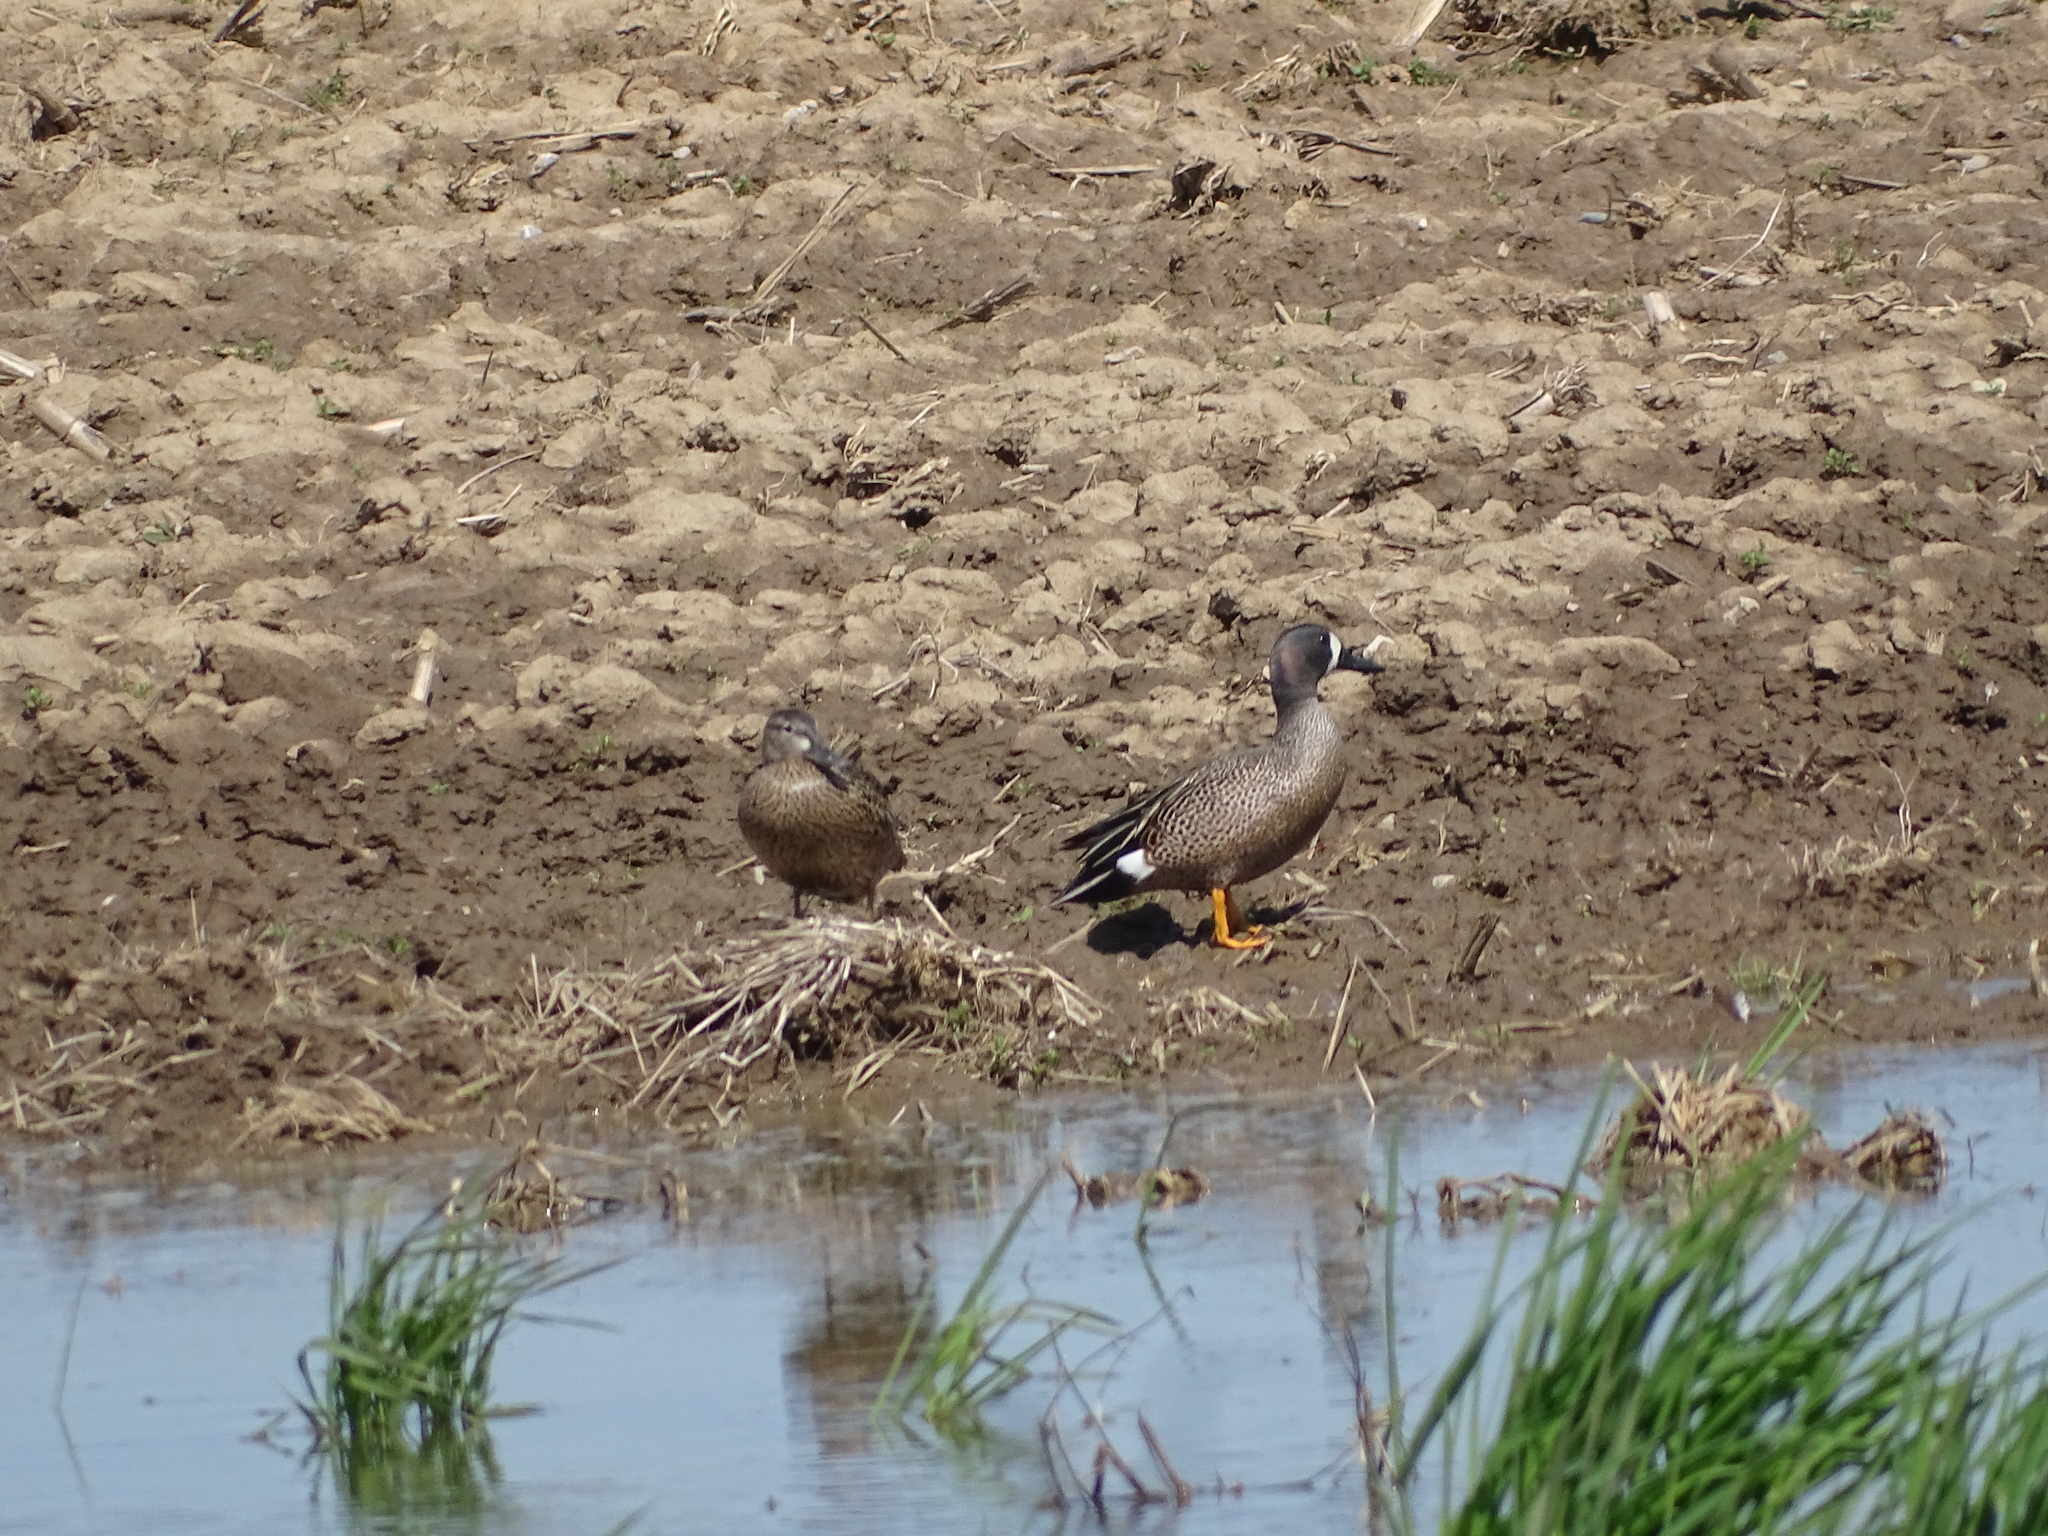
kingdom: Animalia
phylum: Chordata
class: Aves
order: Anseriformes
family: Anatidae
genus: Spatula
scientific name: Spatula discors
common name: Blue-winged teal
